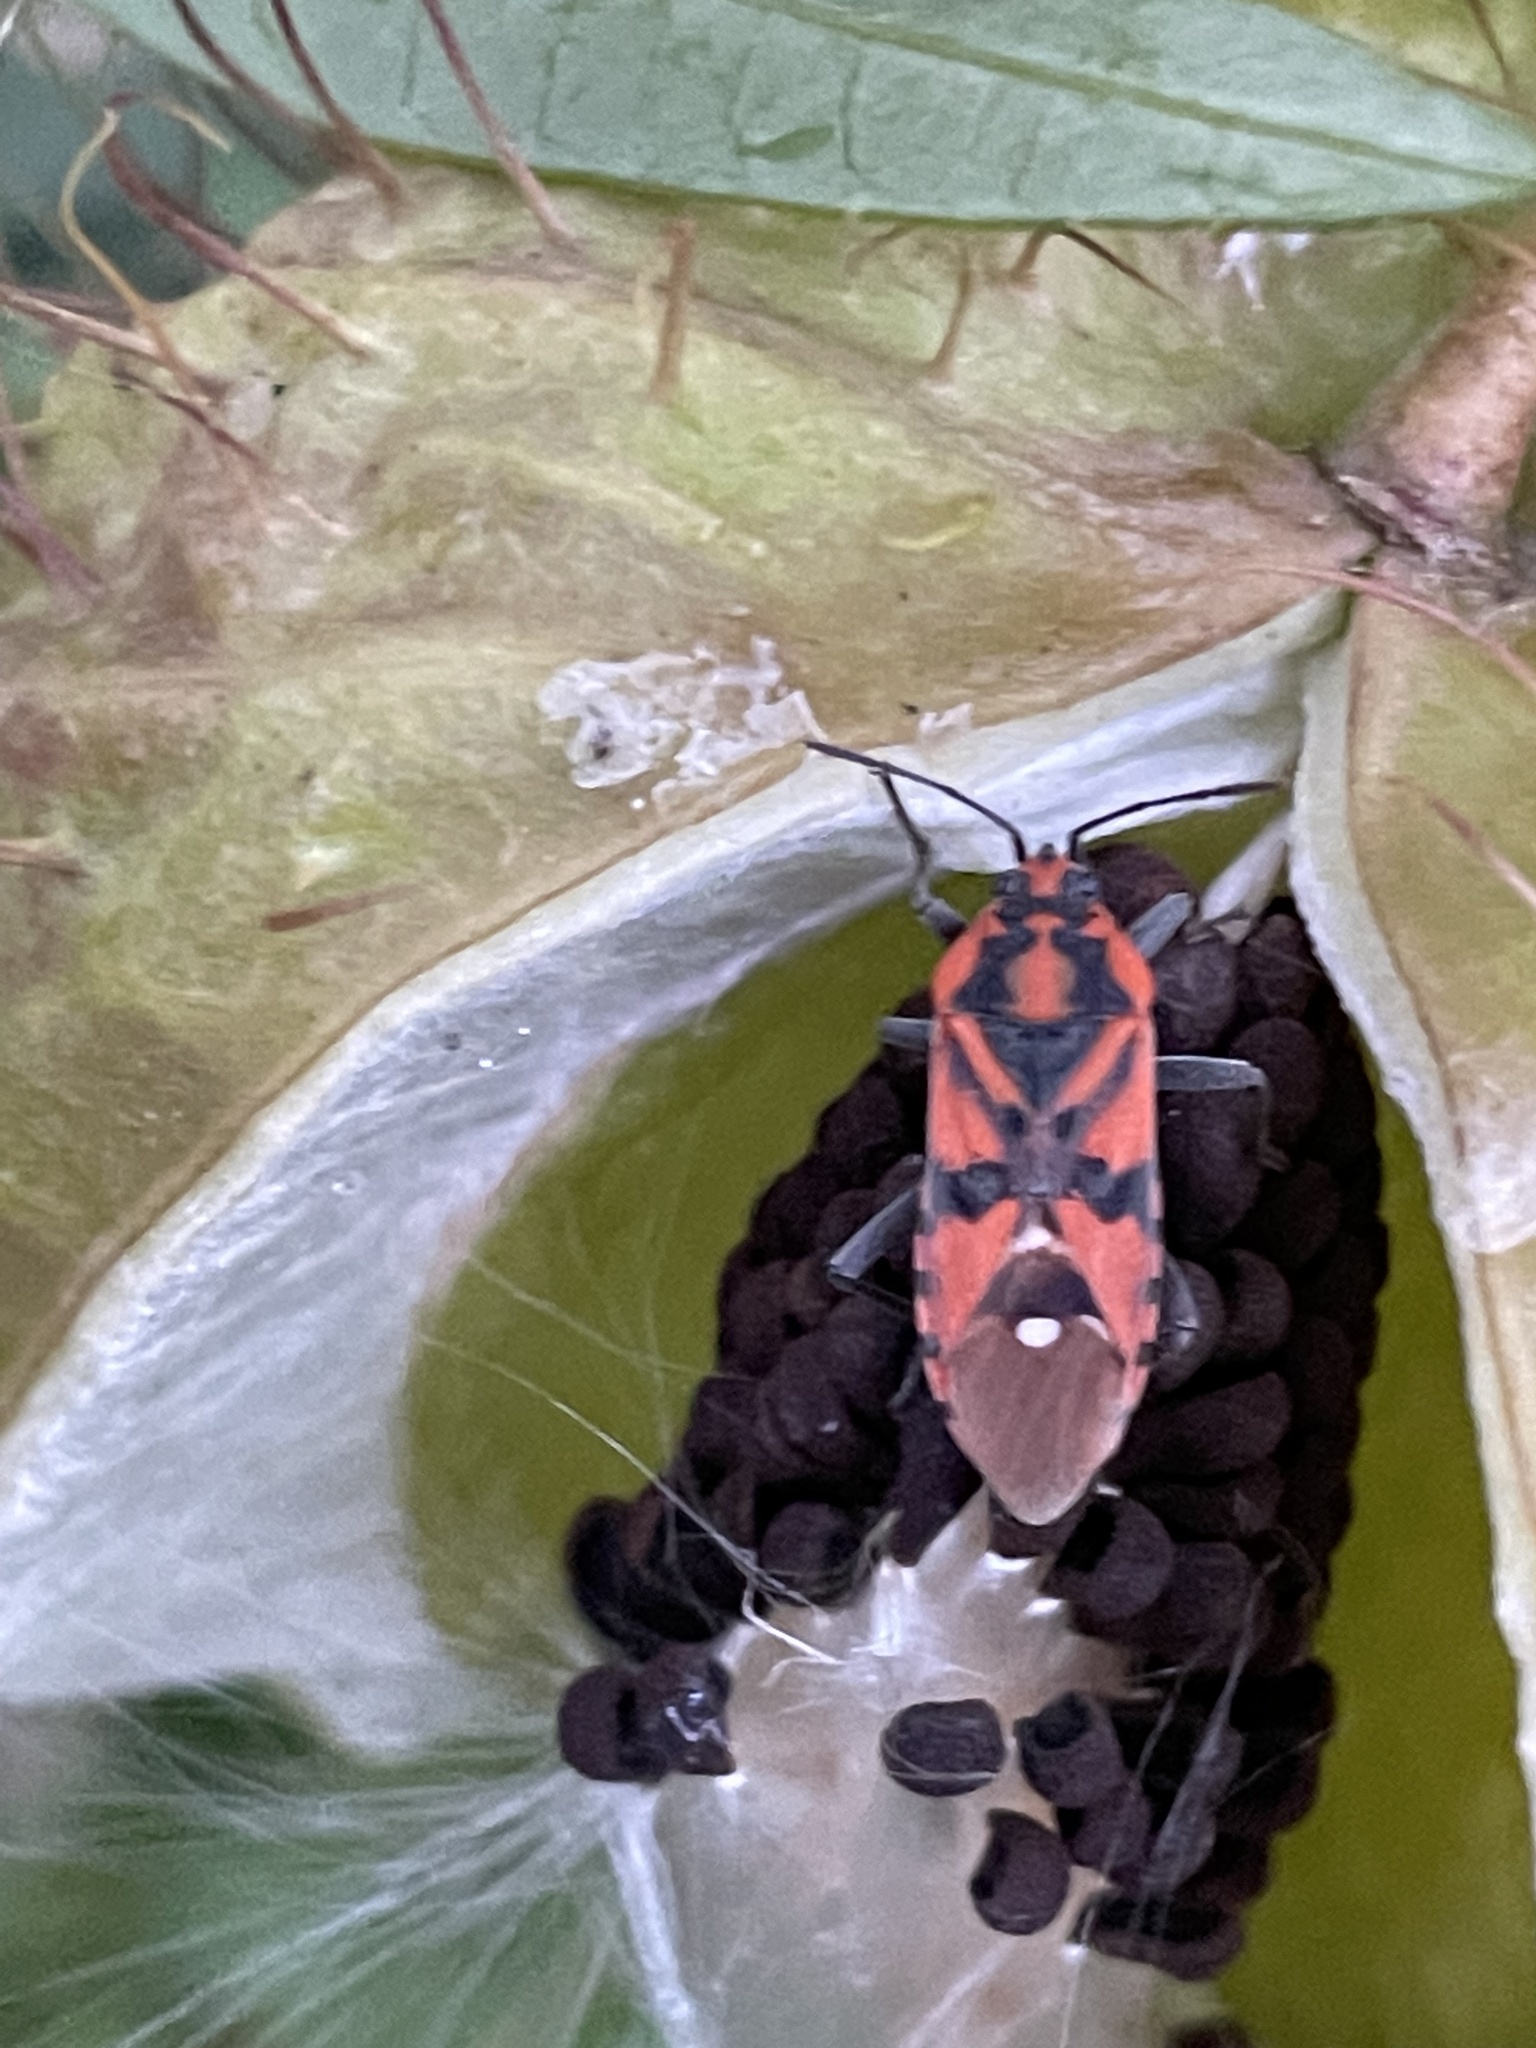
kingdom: Animalia
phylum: Arthropoda
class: Insecta
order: Hemiptera
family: Lygaeidae
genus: Spilostethus
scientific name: Spilostethus pandurus
